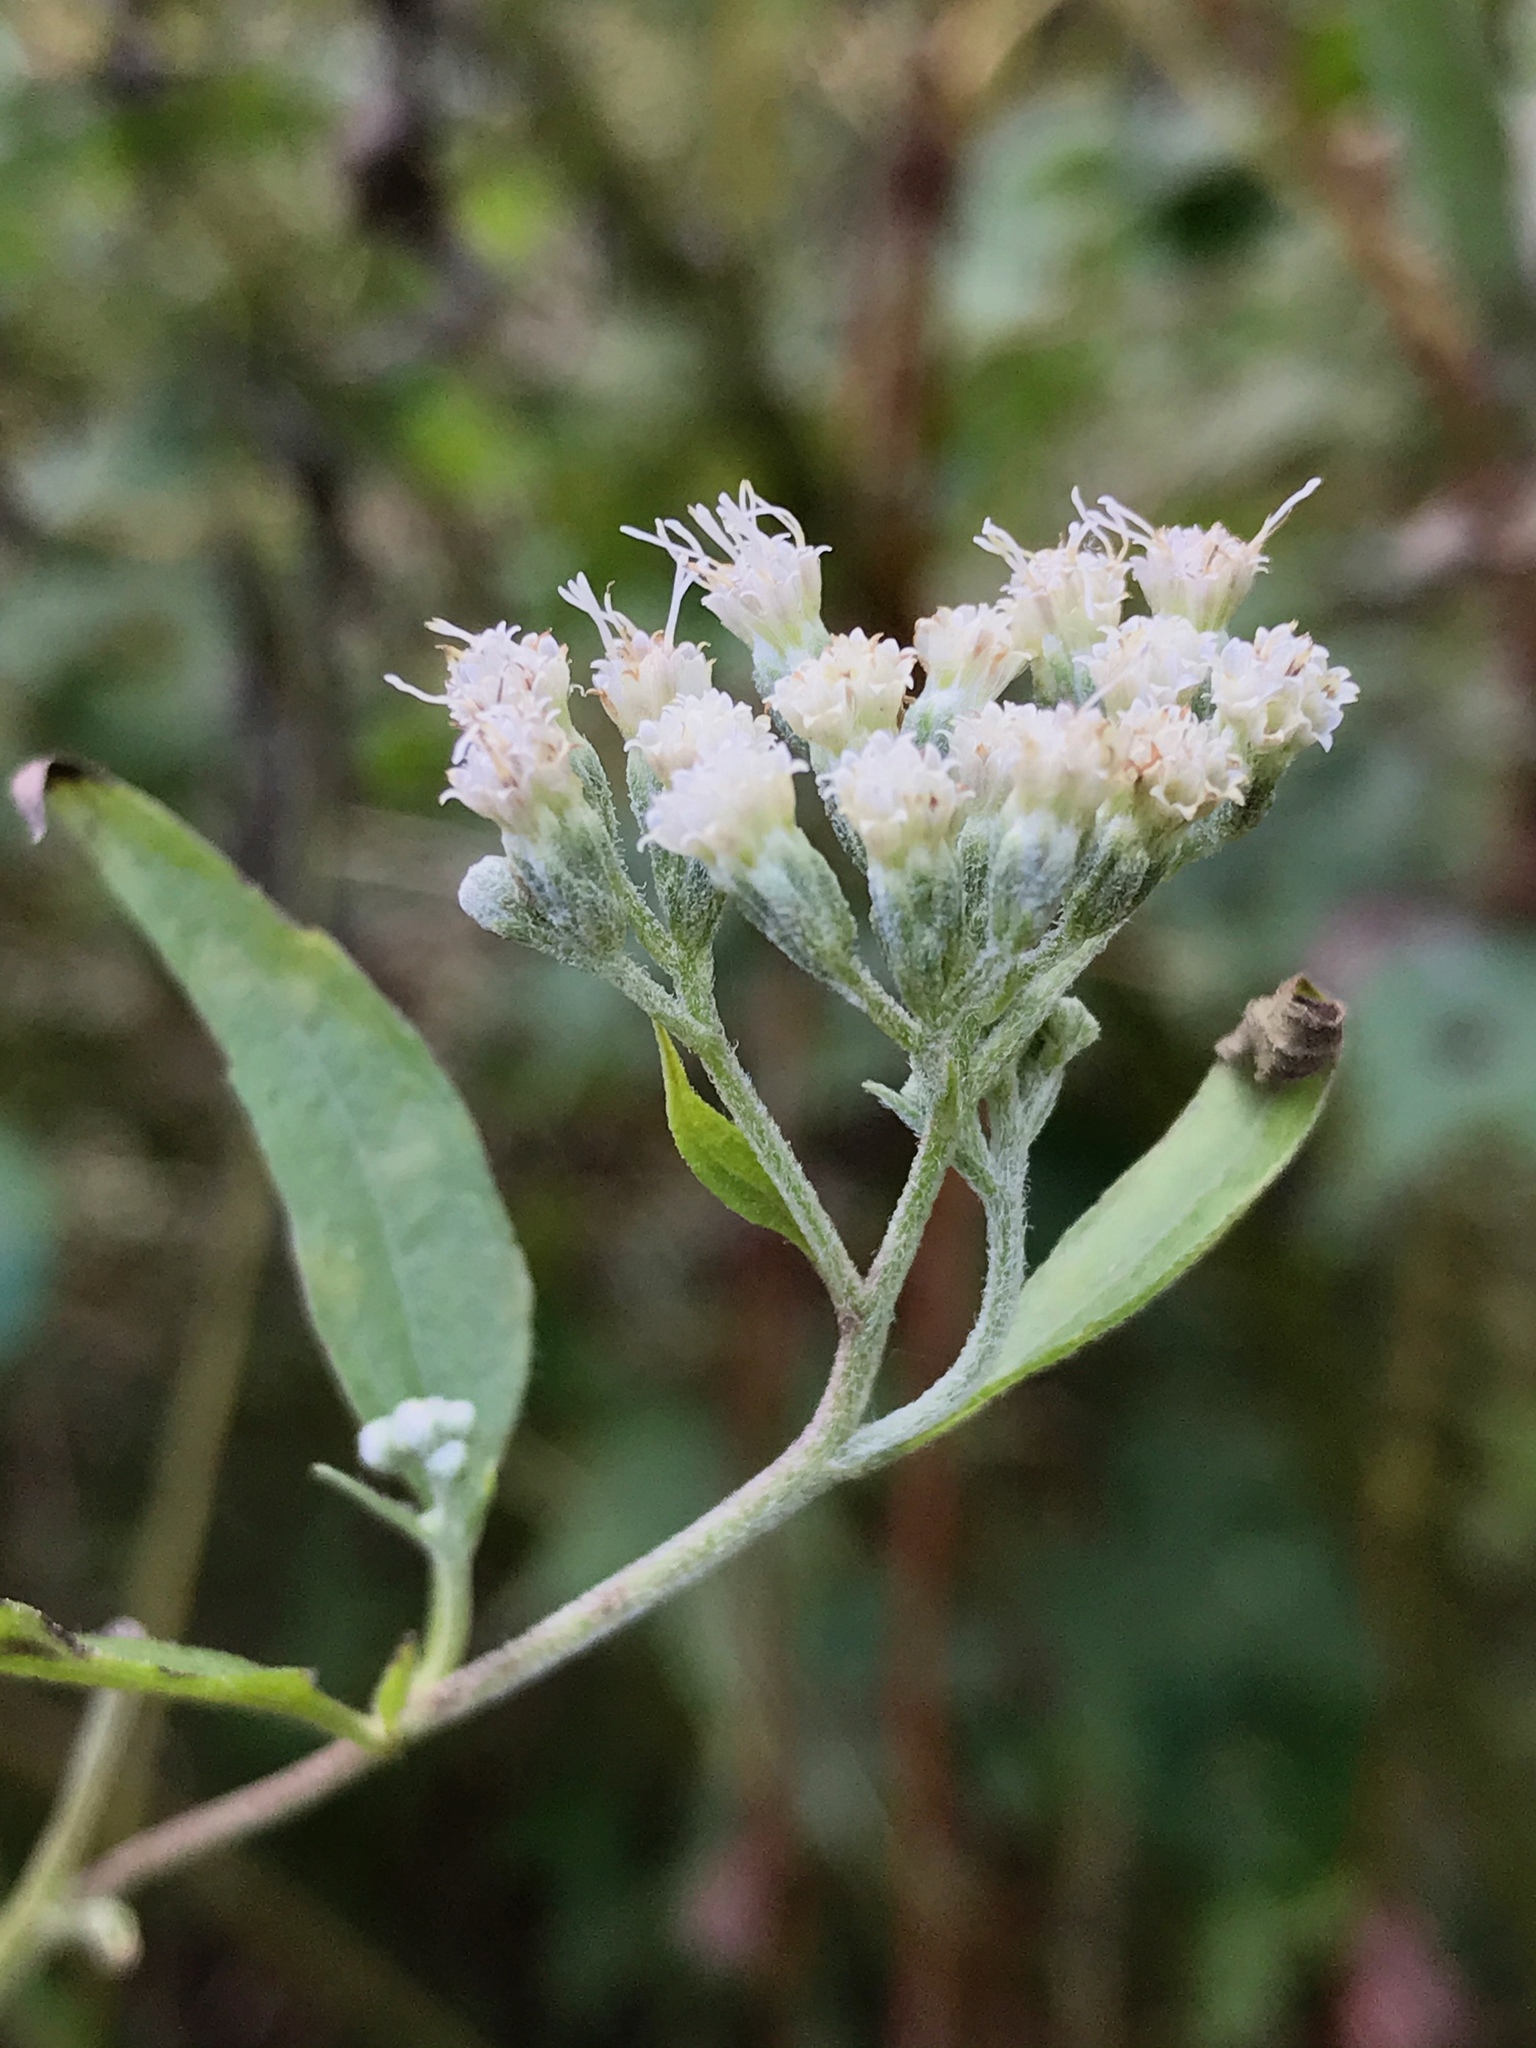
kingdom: Plantae
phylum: Tracheophyta
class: Magnoliopsida
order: Asterales
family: Asteraceae
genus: Eupatorium
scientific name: Eupatorium serotinum
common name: Late boneset
